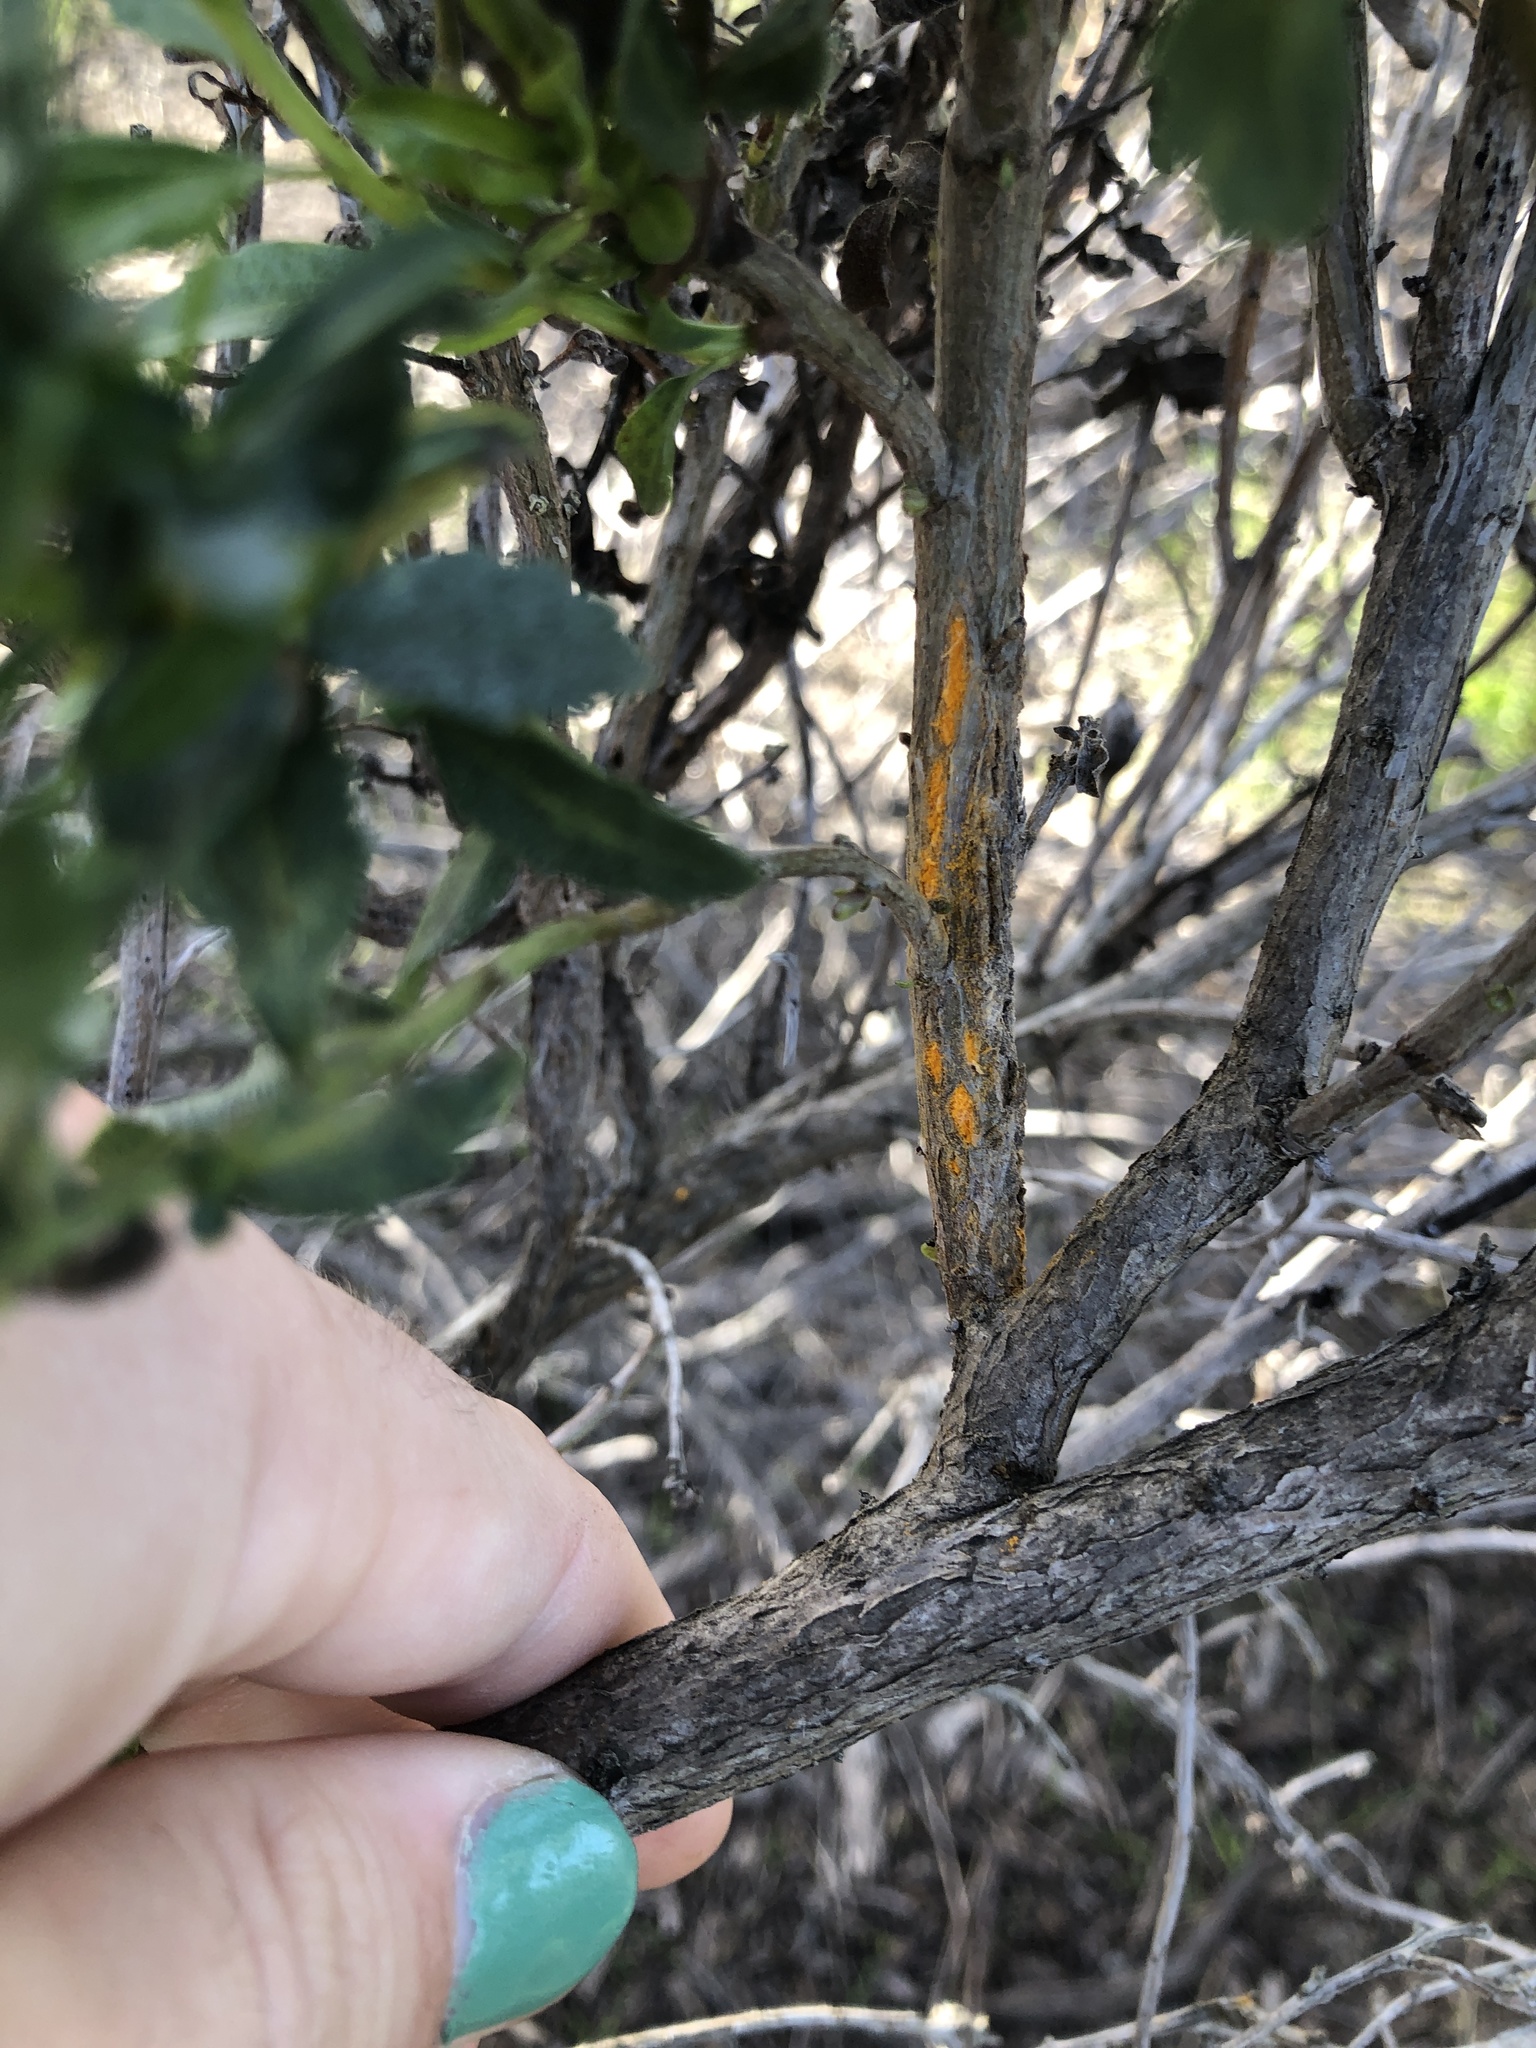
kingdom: Fungi
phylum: Basidiomycota
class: Pucciniomycetes
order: Pucciniales
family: Pucciniaceae
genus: Eriosporangium
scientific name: Eriosporangium evadens
